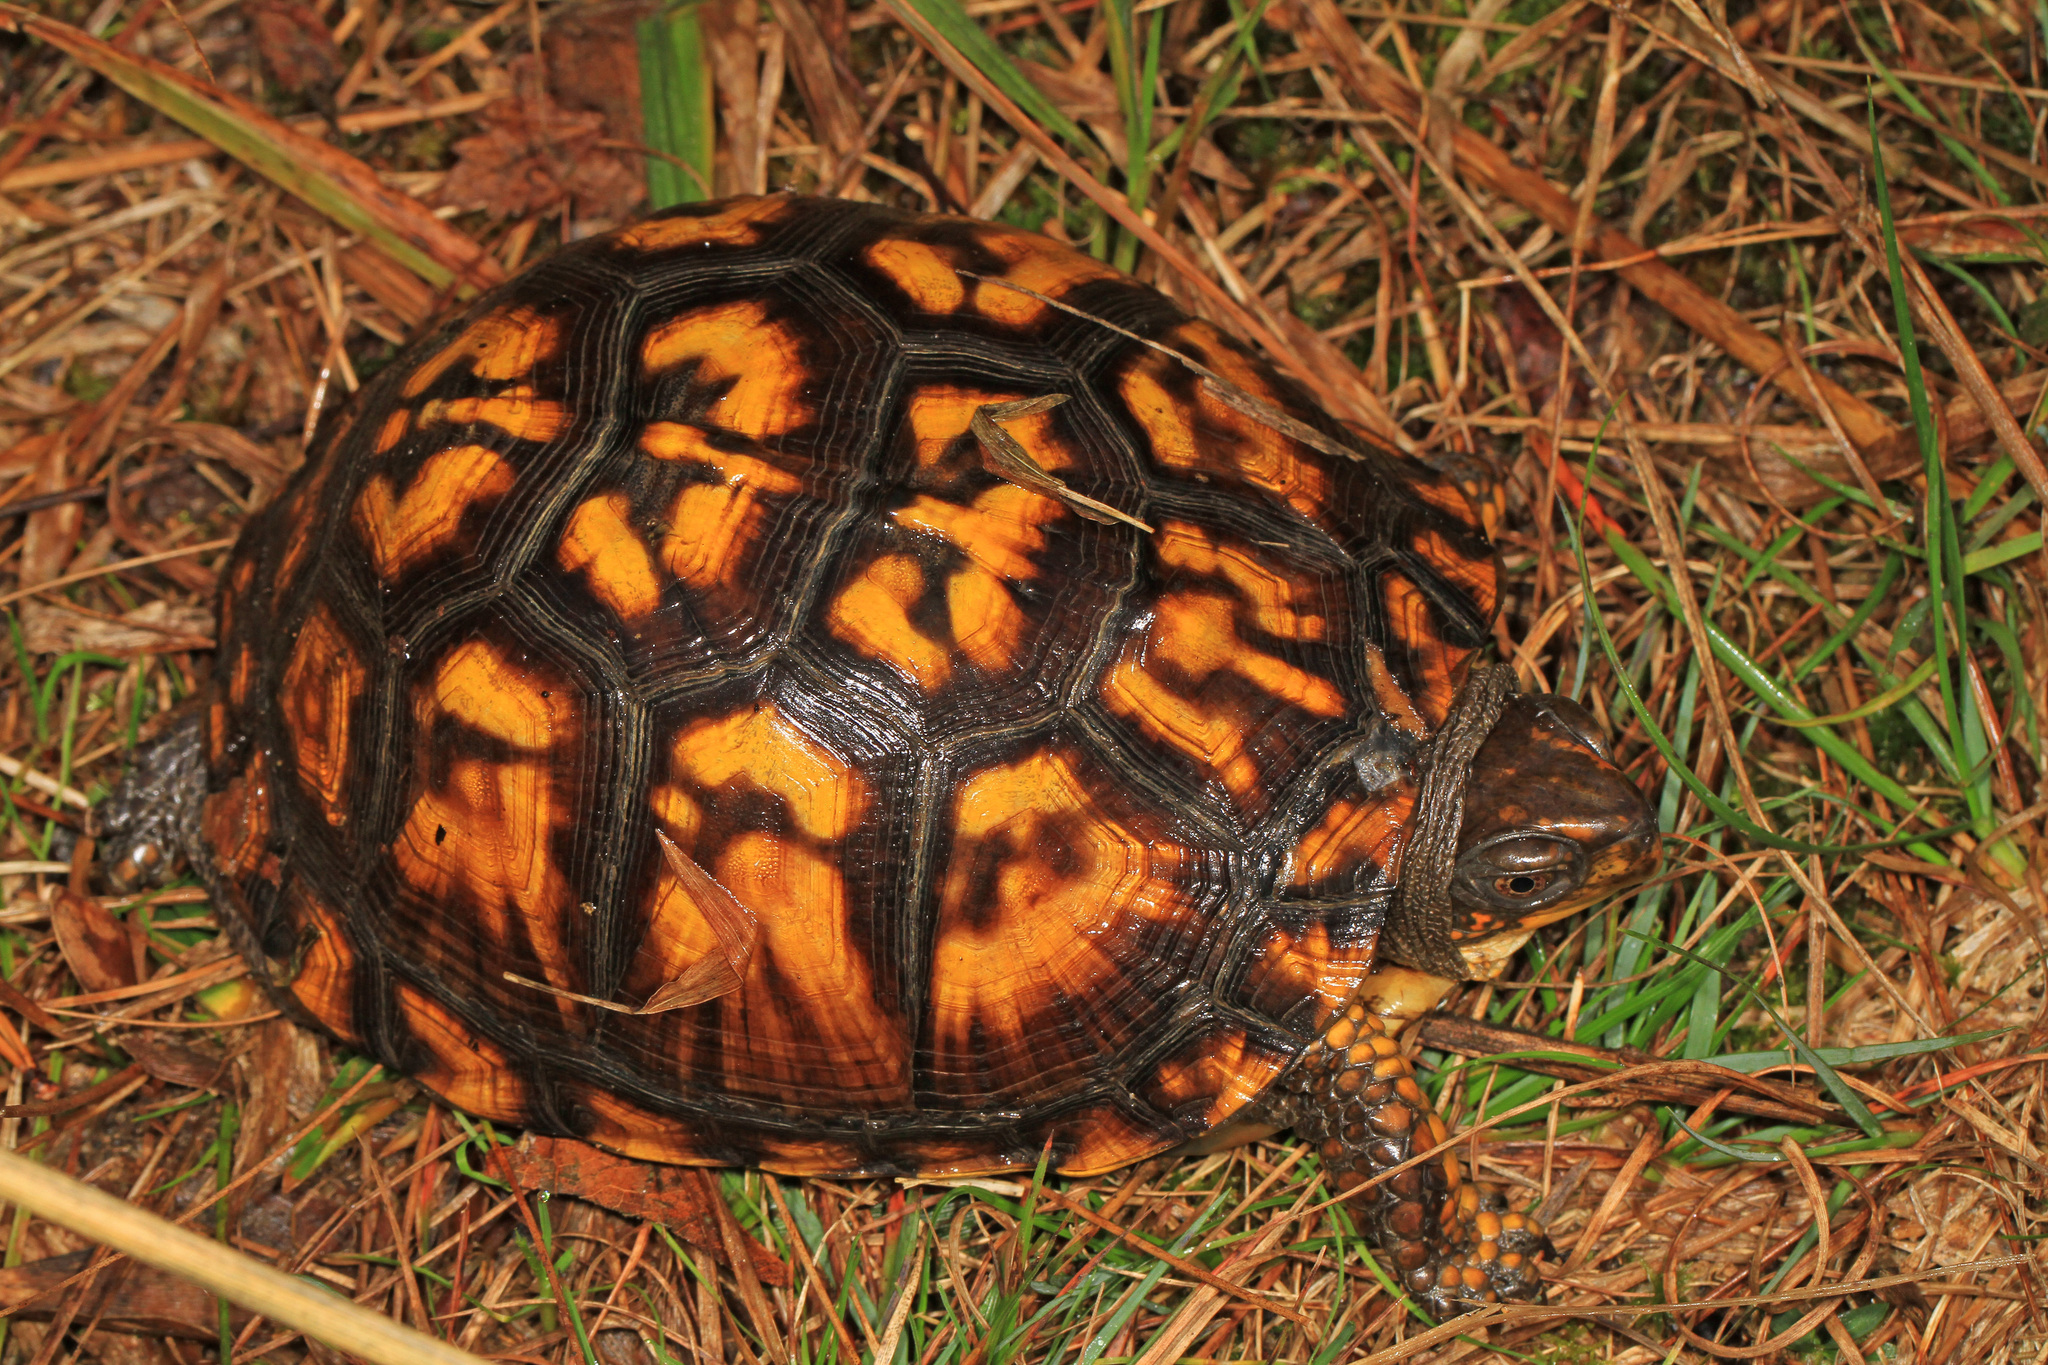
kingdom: Animalia
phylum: Chordata
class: Testudines
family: Emydidae
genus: Terrapene
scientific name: Terrapene carolina
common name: Common box turtle
